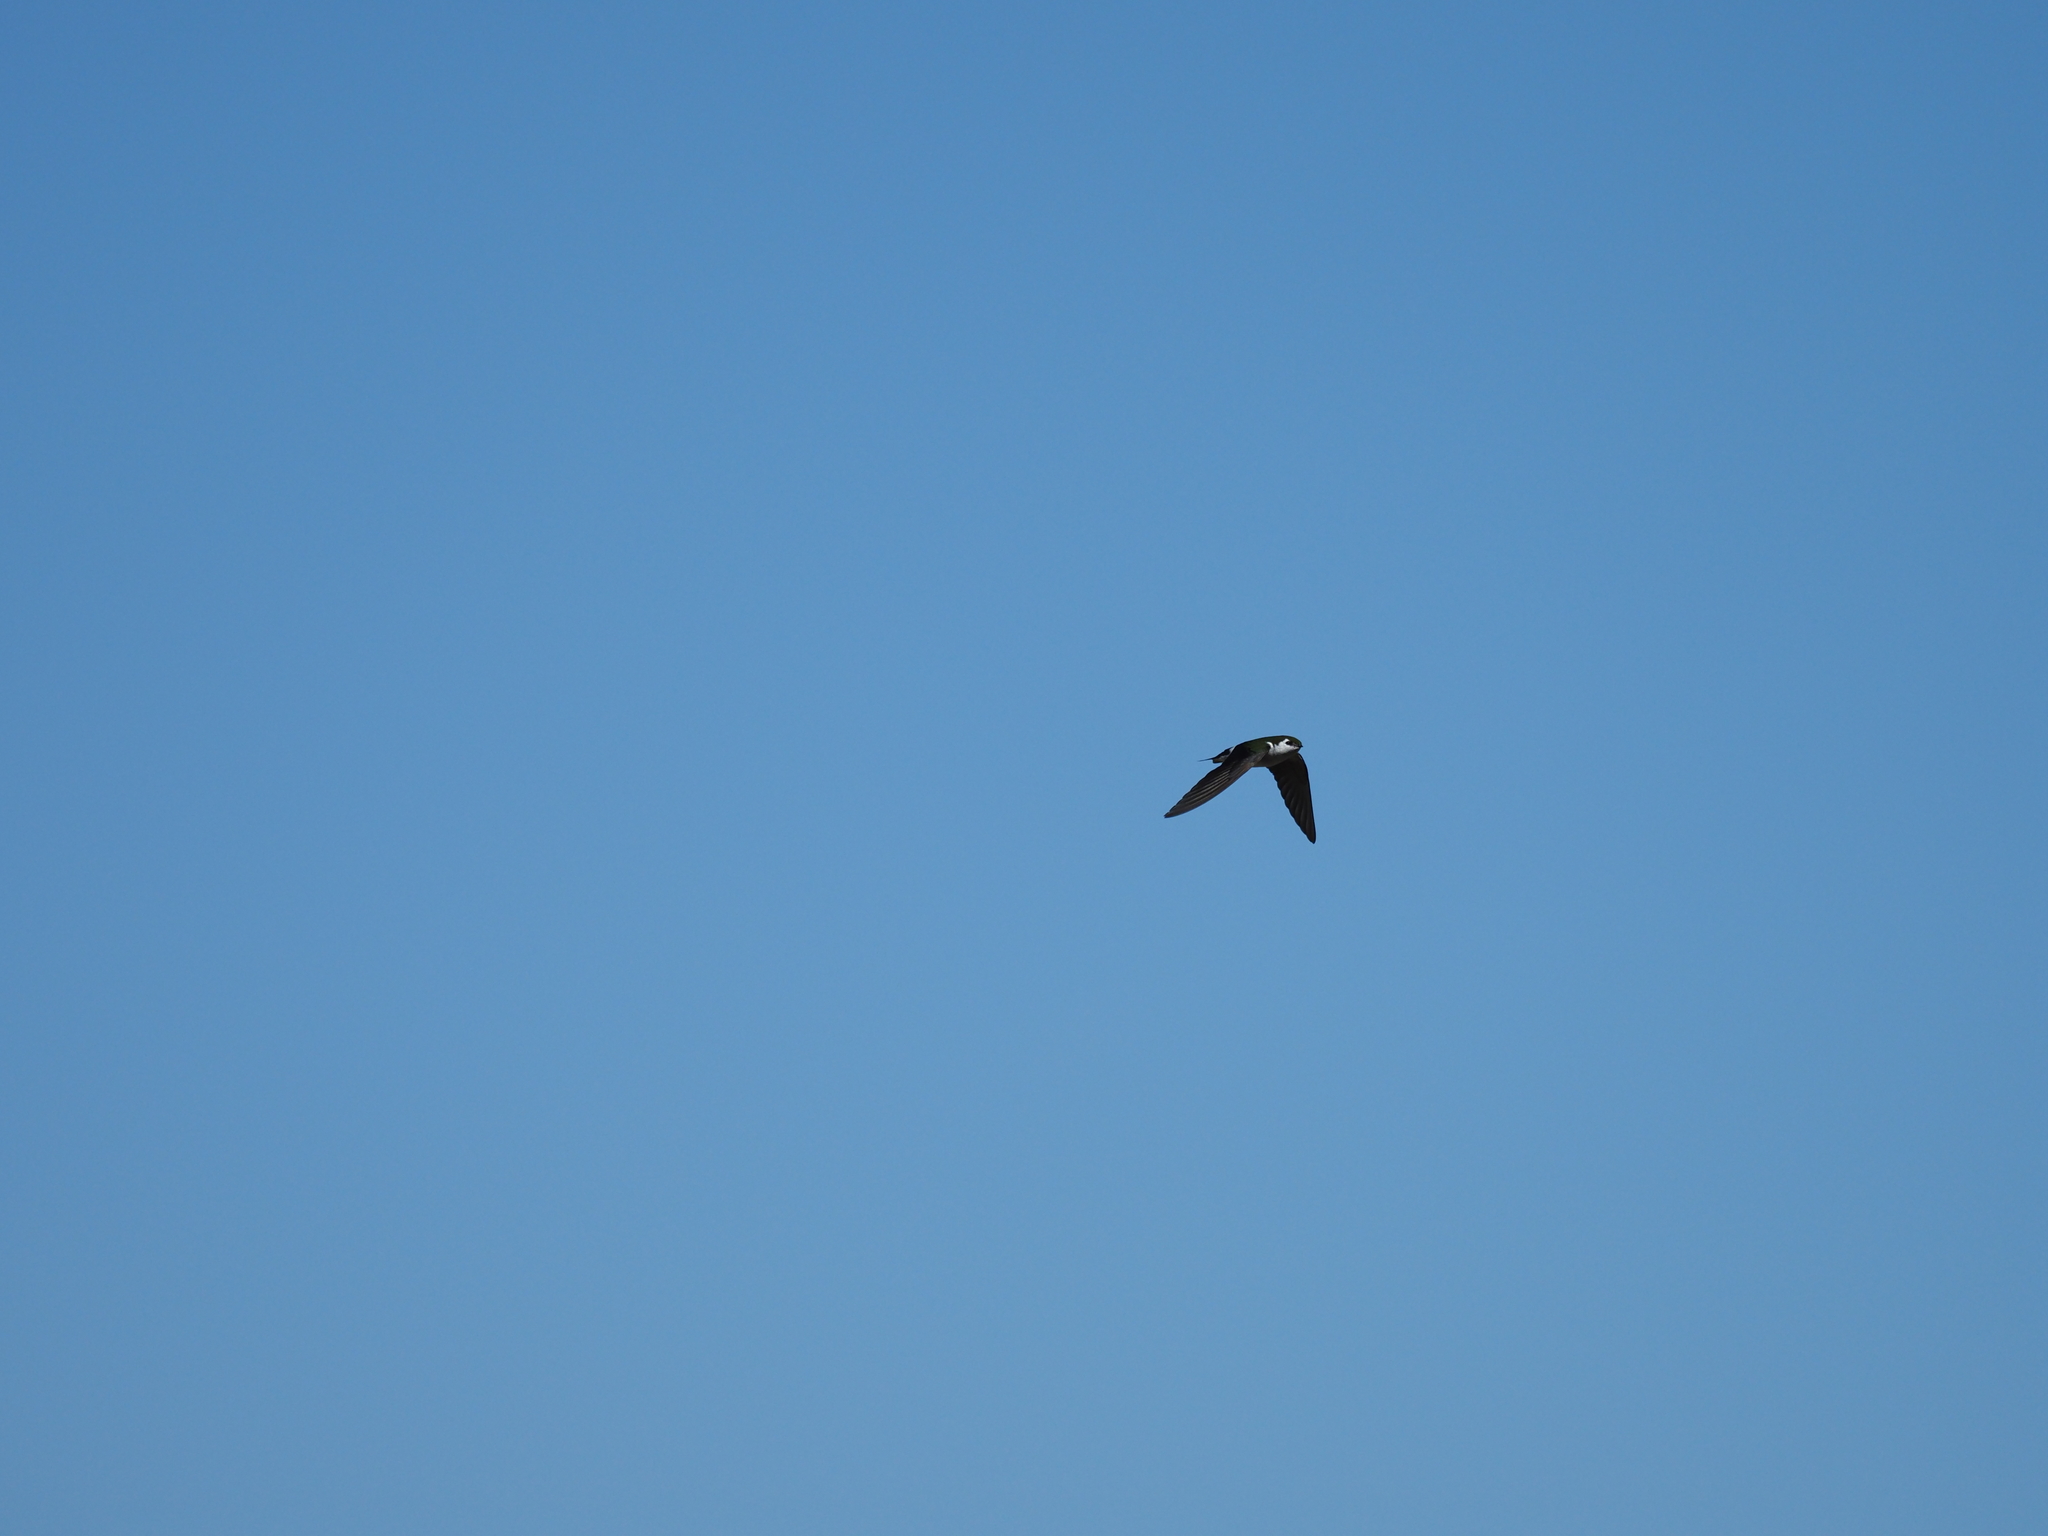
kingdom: Animalia
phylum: Chordata
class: Aves
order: Passeriformes
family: Hirundinidae
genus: Tachycineta
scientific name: Tachycineta thalassina
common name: Violet-green swallow
